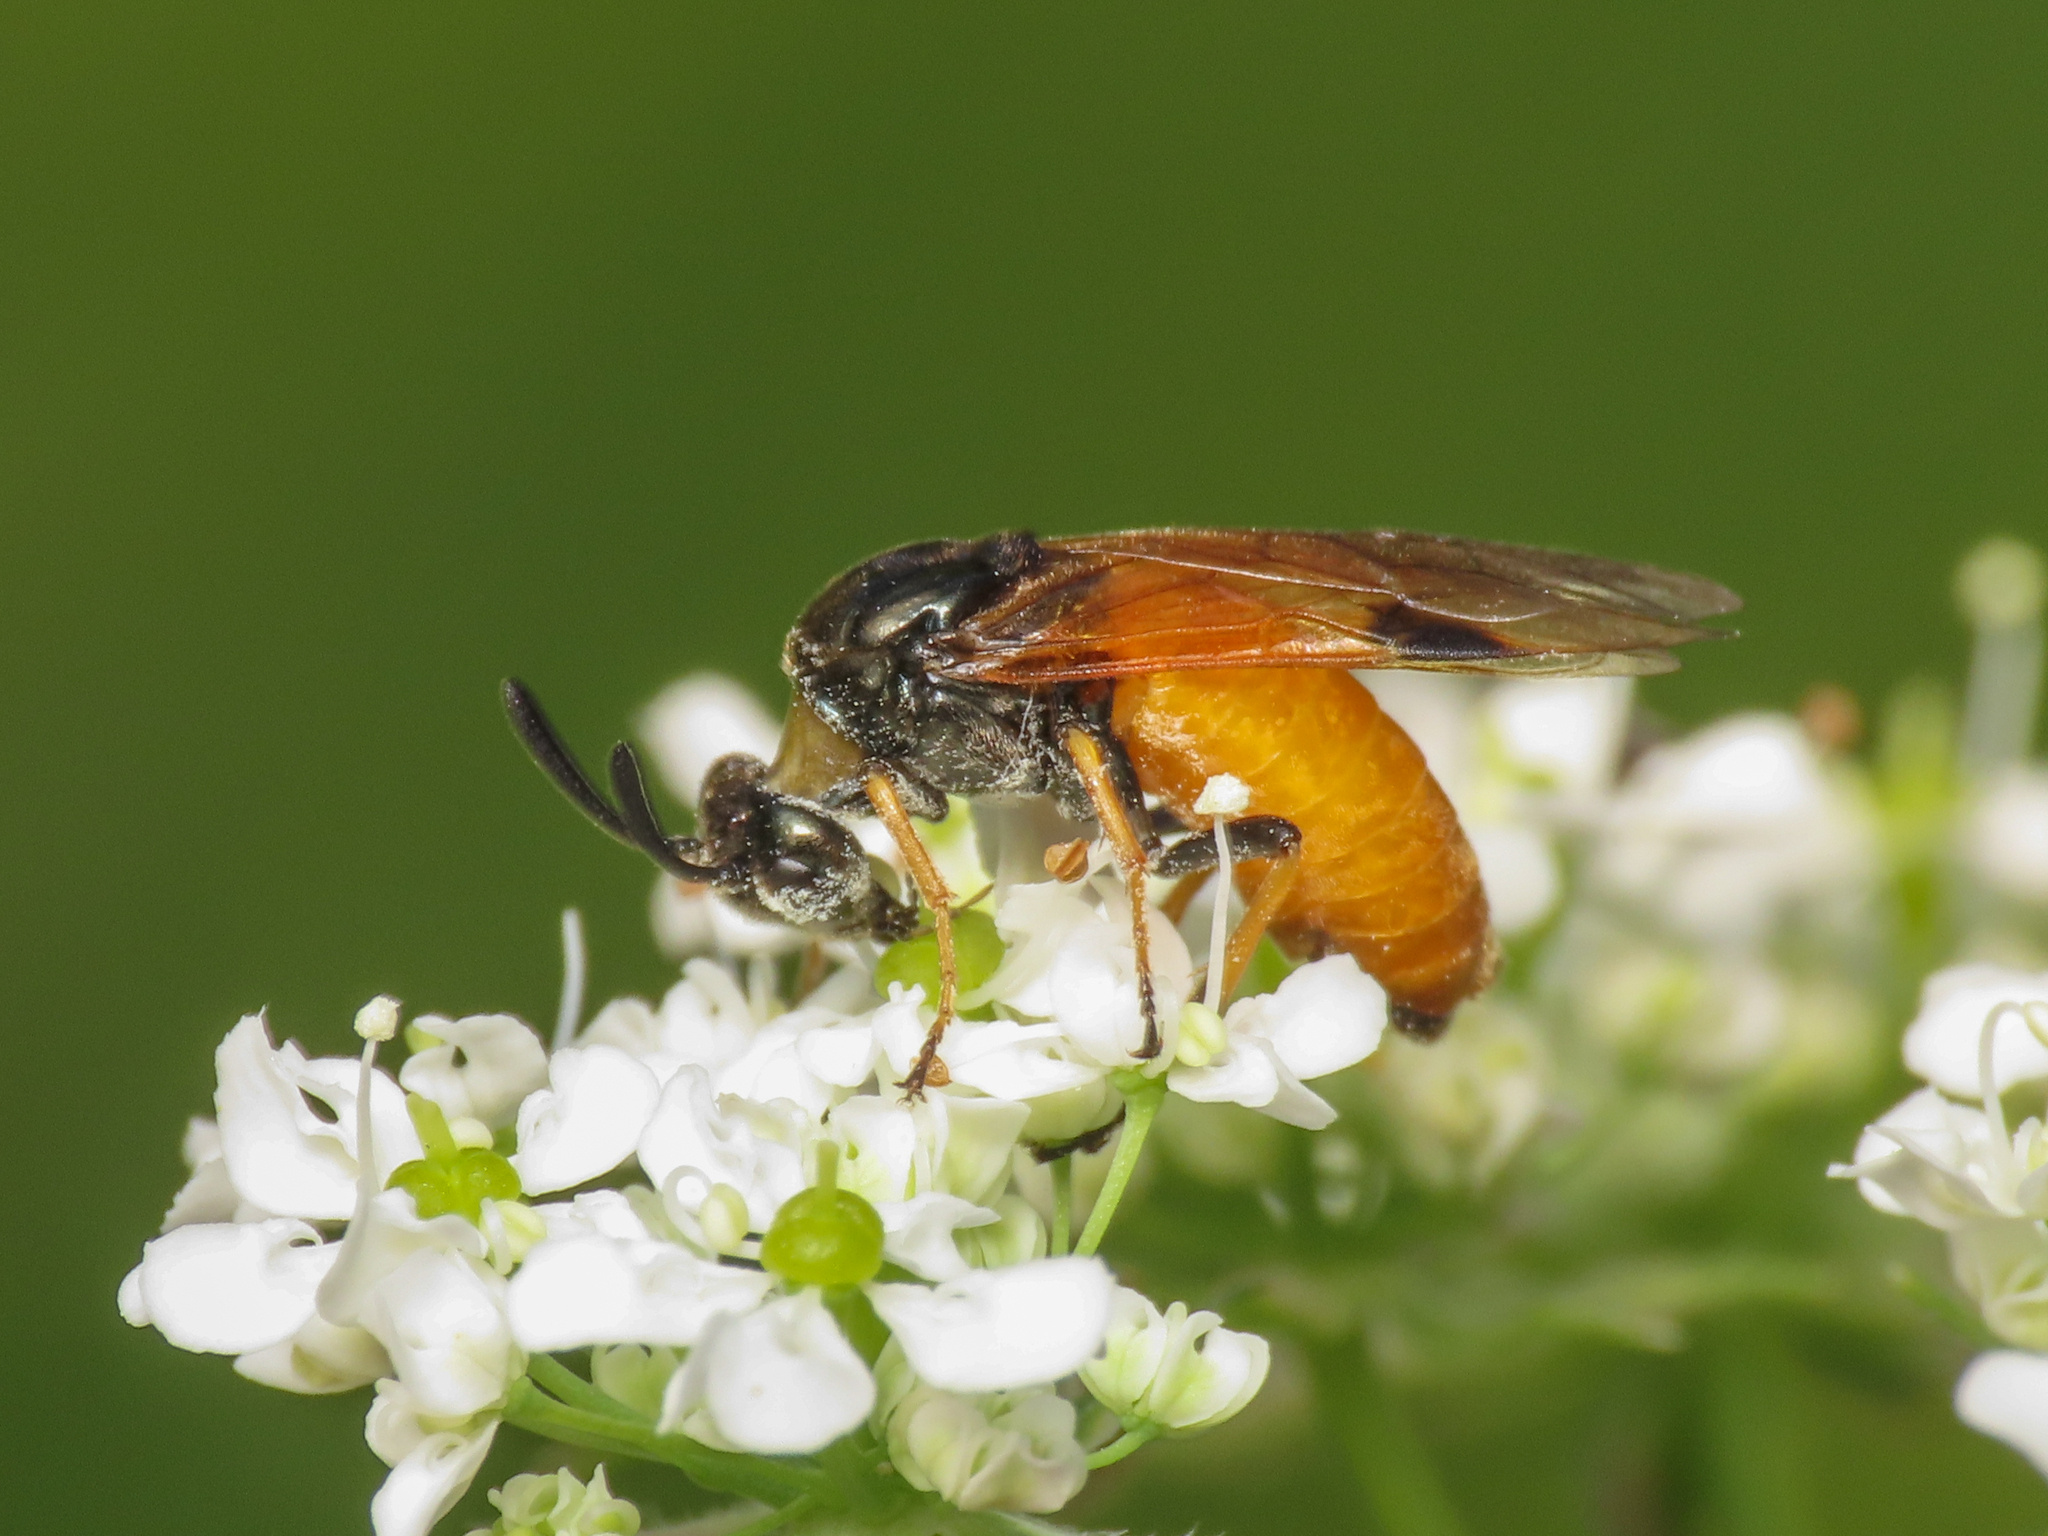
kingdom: Animalia
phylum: Arthropoda
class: Insecta
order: Hymenoptera
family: Argidae
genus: Arge
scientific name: Arge melanochra
